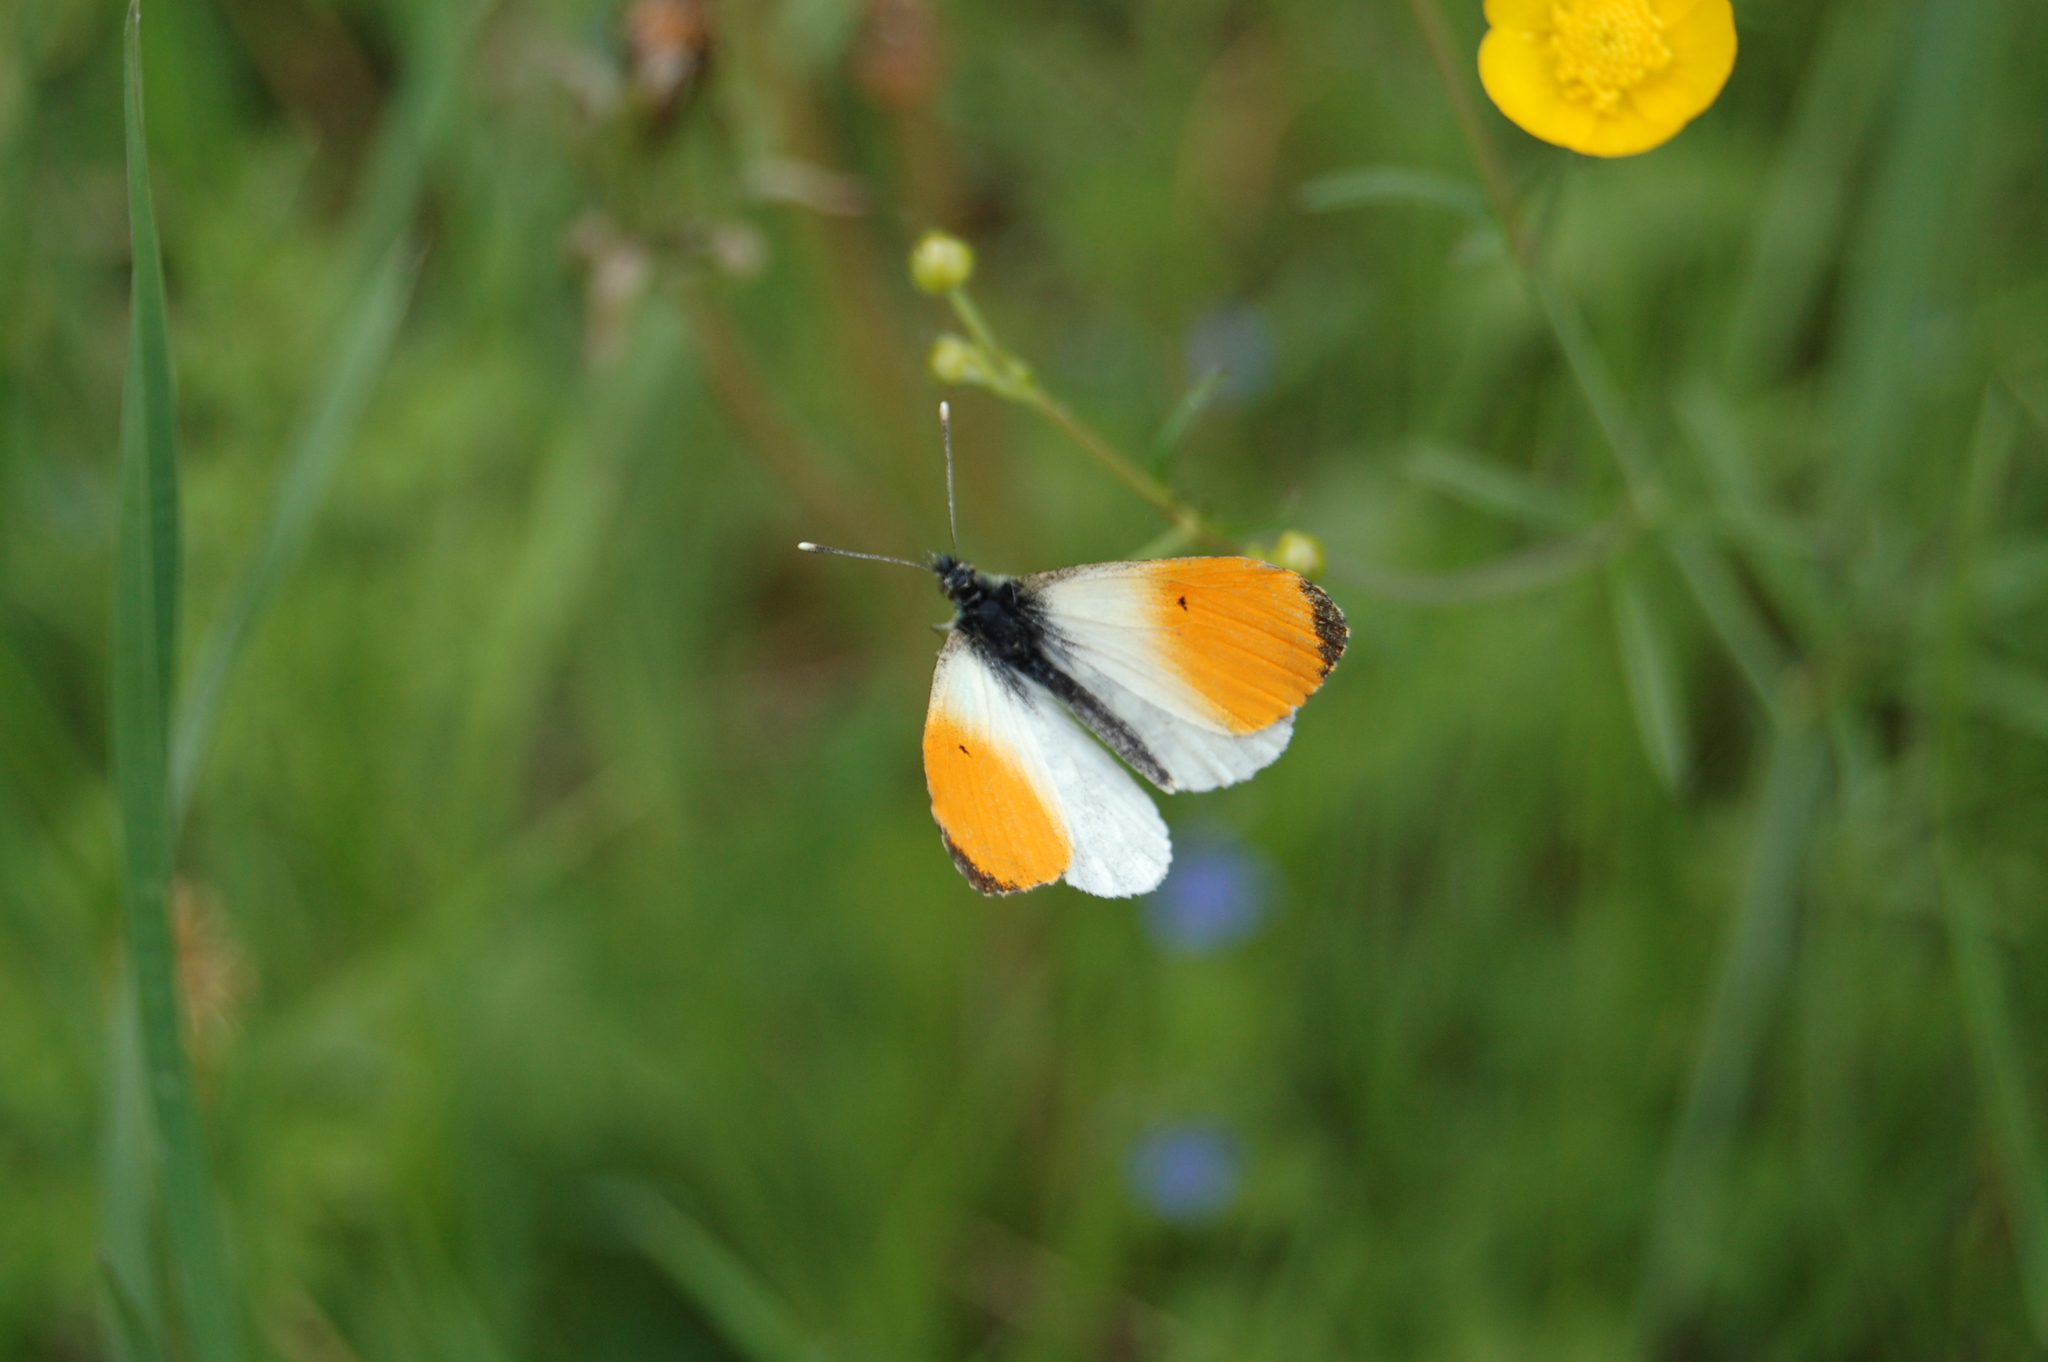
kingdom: Animalia
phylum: Arthropoda
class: Insecta
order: Lepidoptera
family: Pieridae
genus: Anthocharis
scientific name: Anthocharis cardamines
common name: Orange-tip
